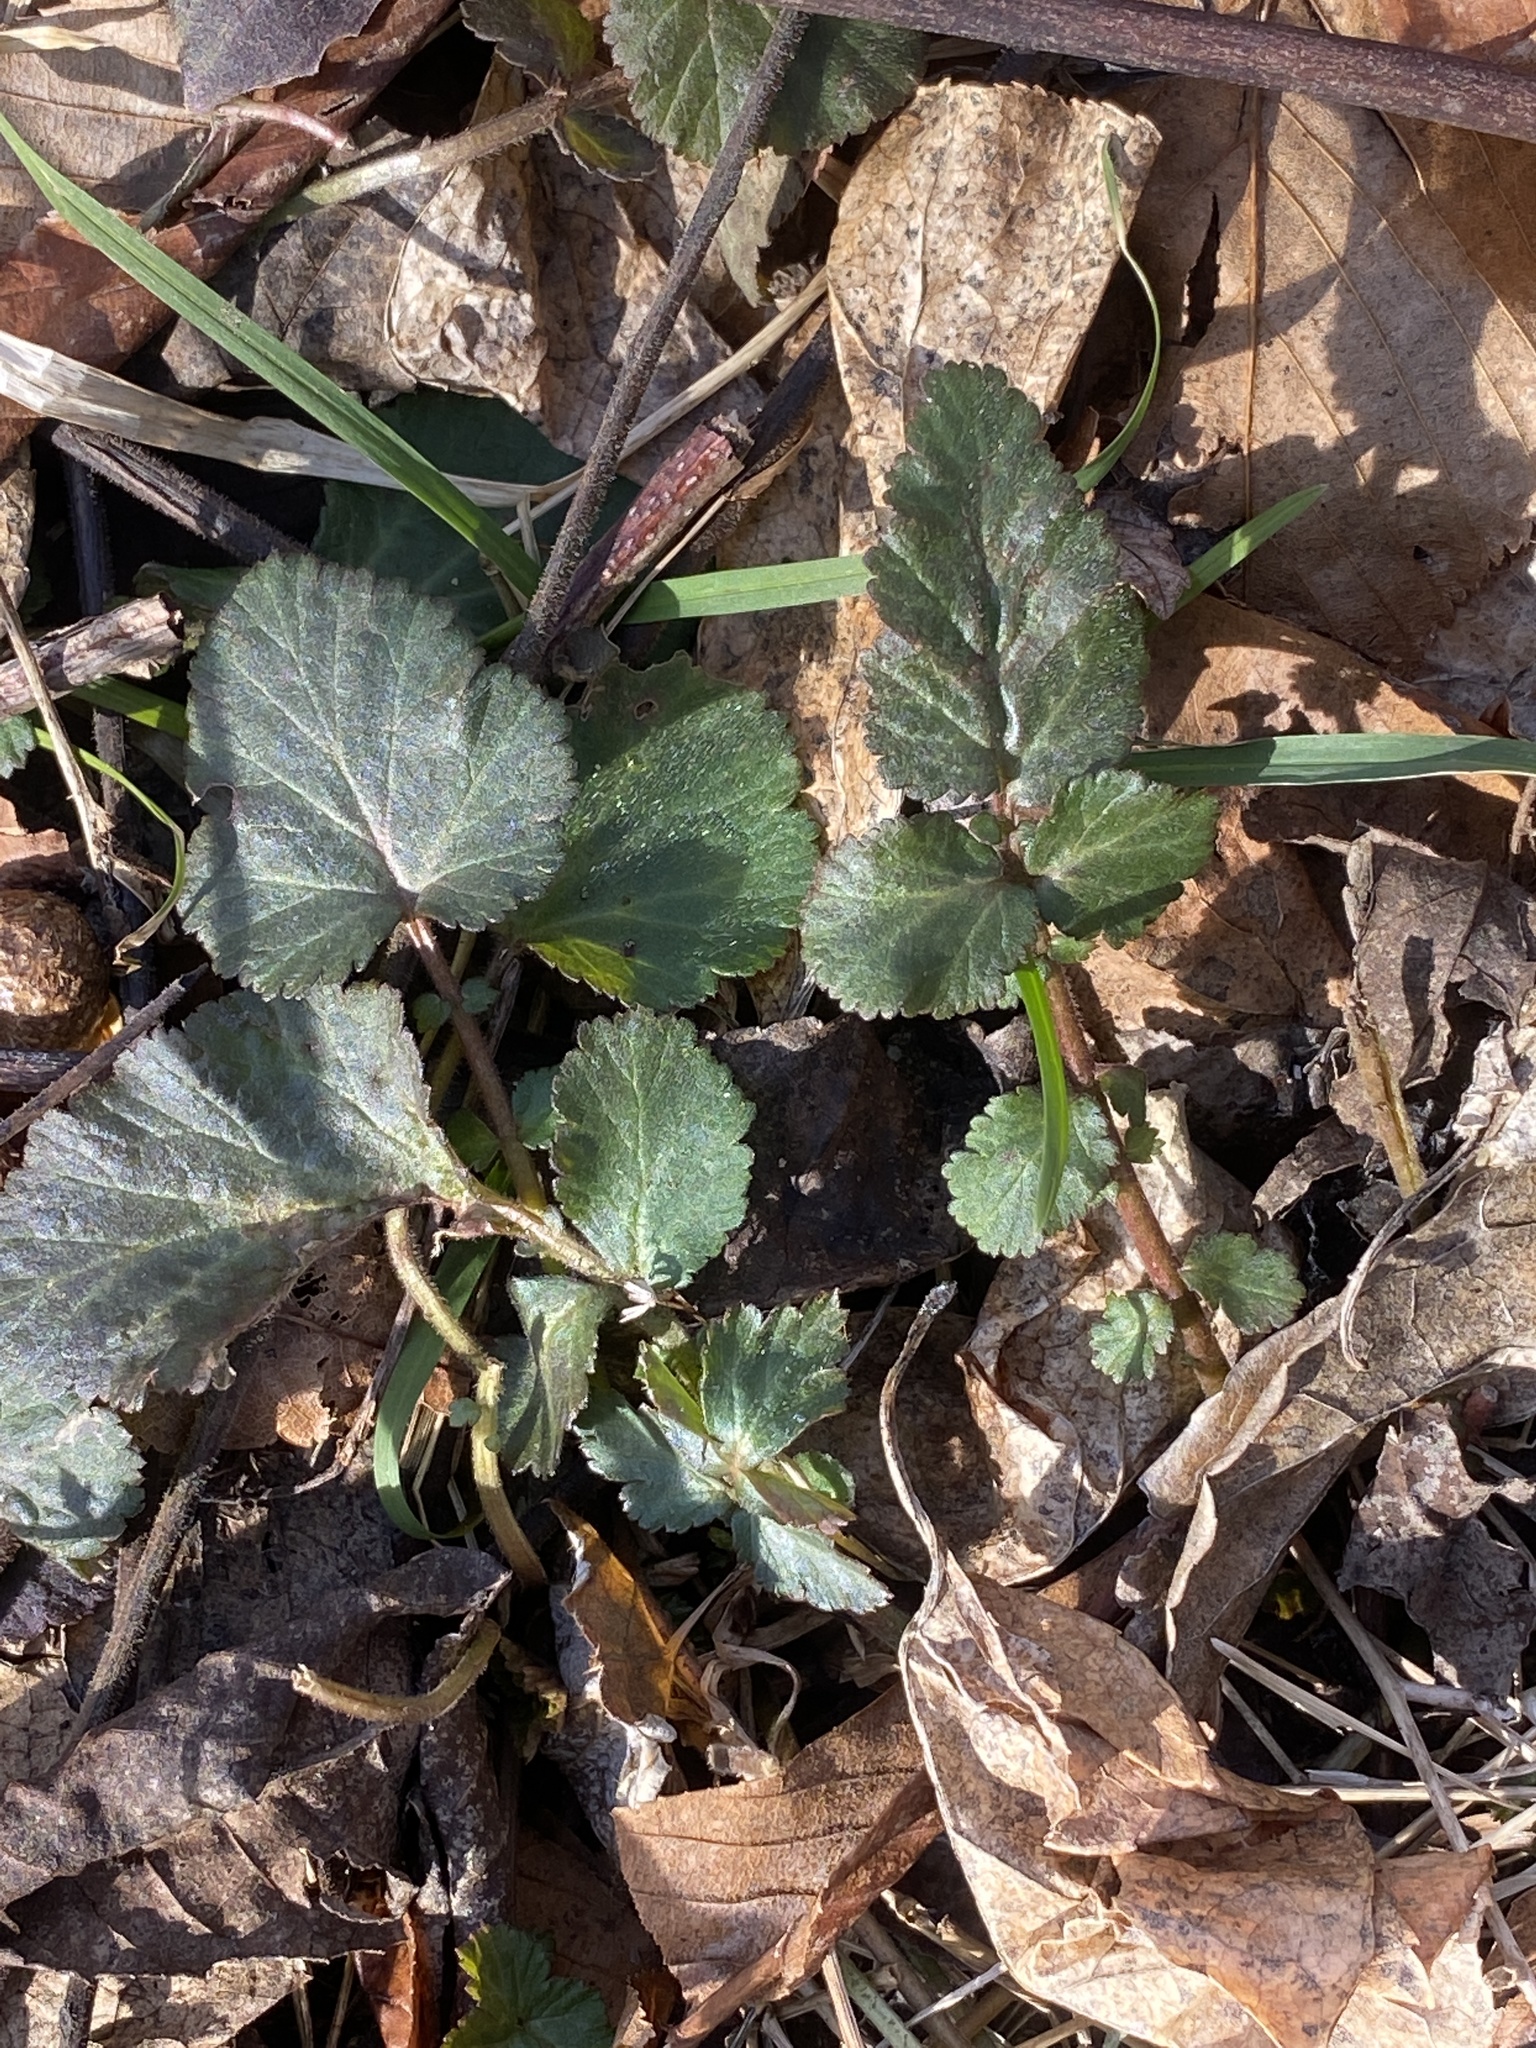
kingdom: Plantae
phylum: Tracheophyta
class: Magnoliopsida
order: Rosales
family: Rosaceae
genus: Geum
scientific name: Geum canadense
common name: White avens
